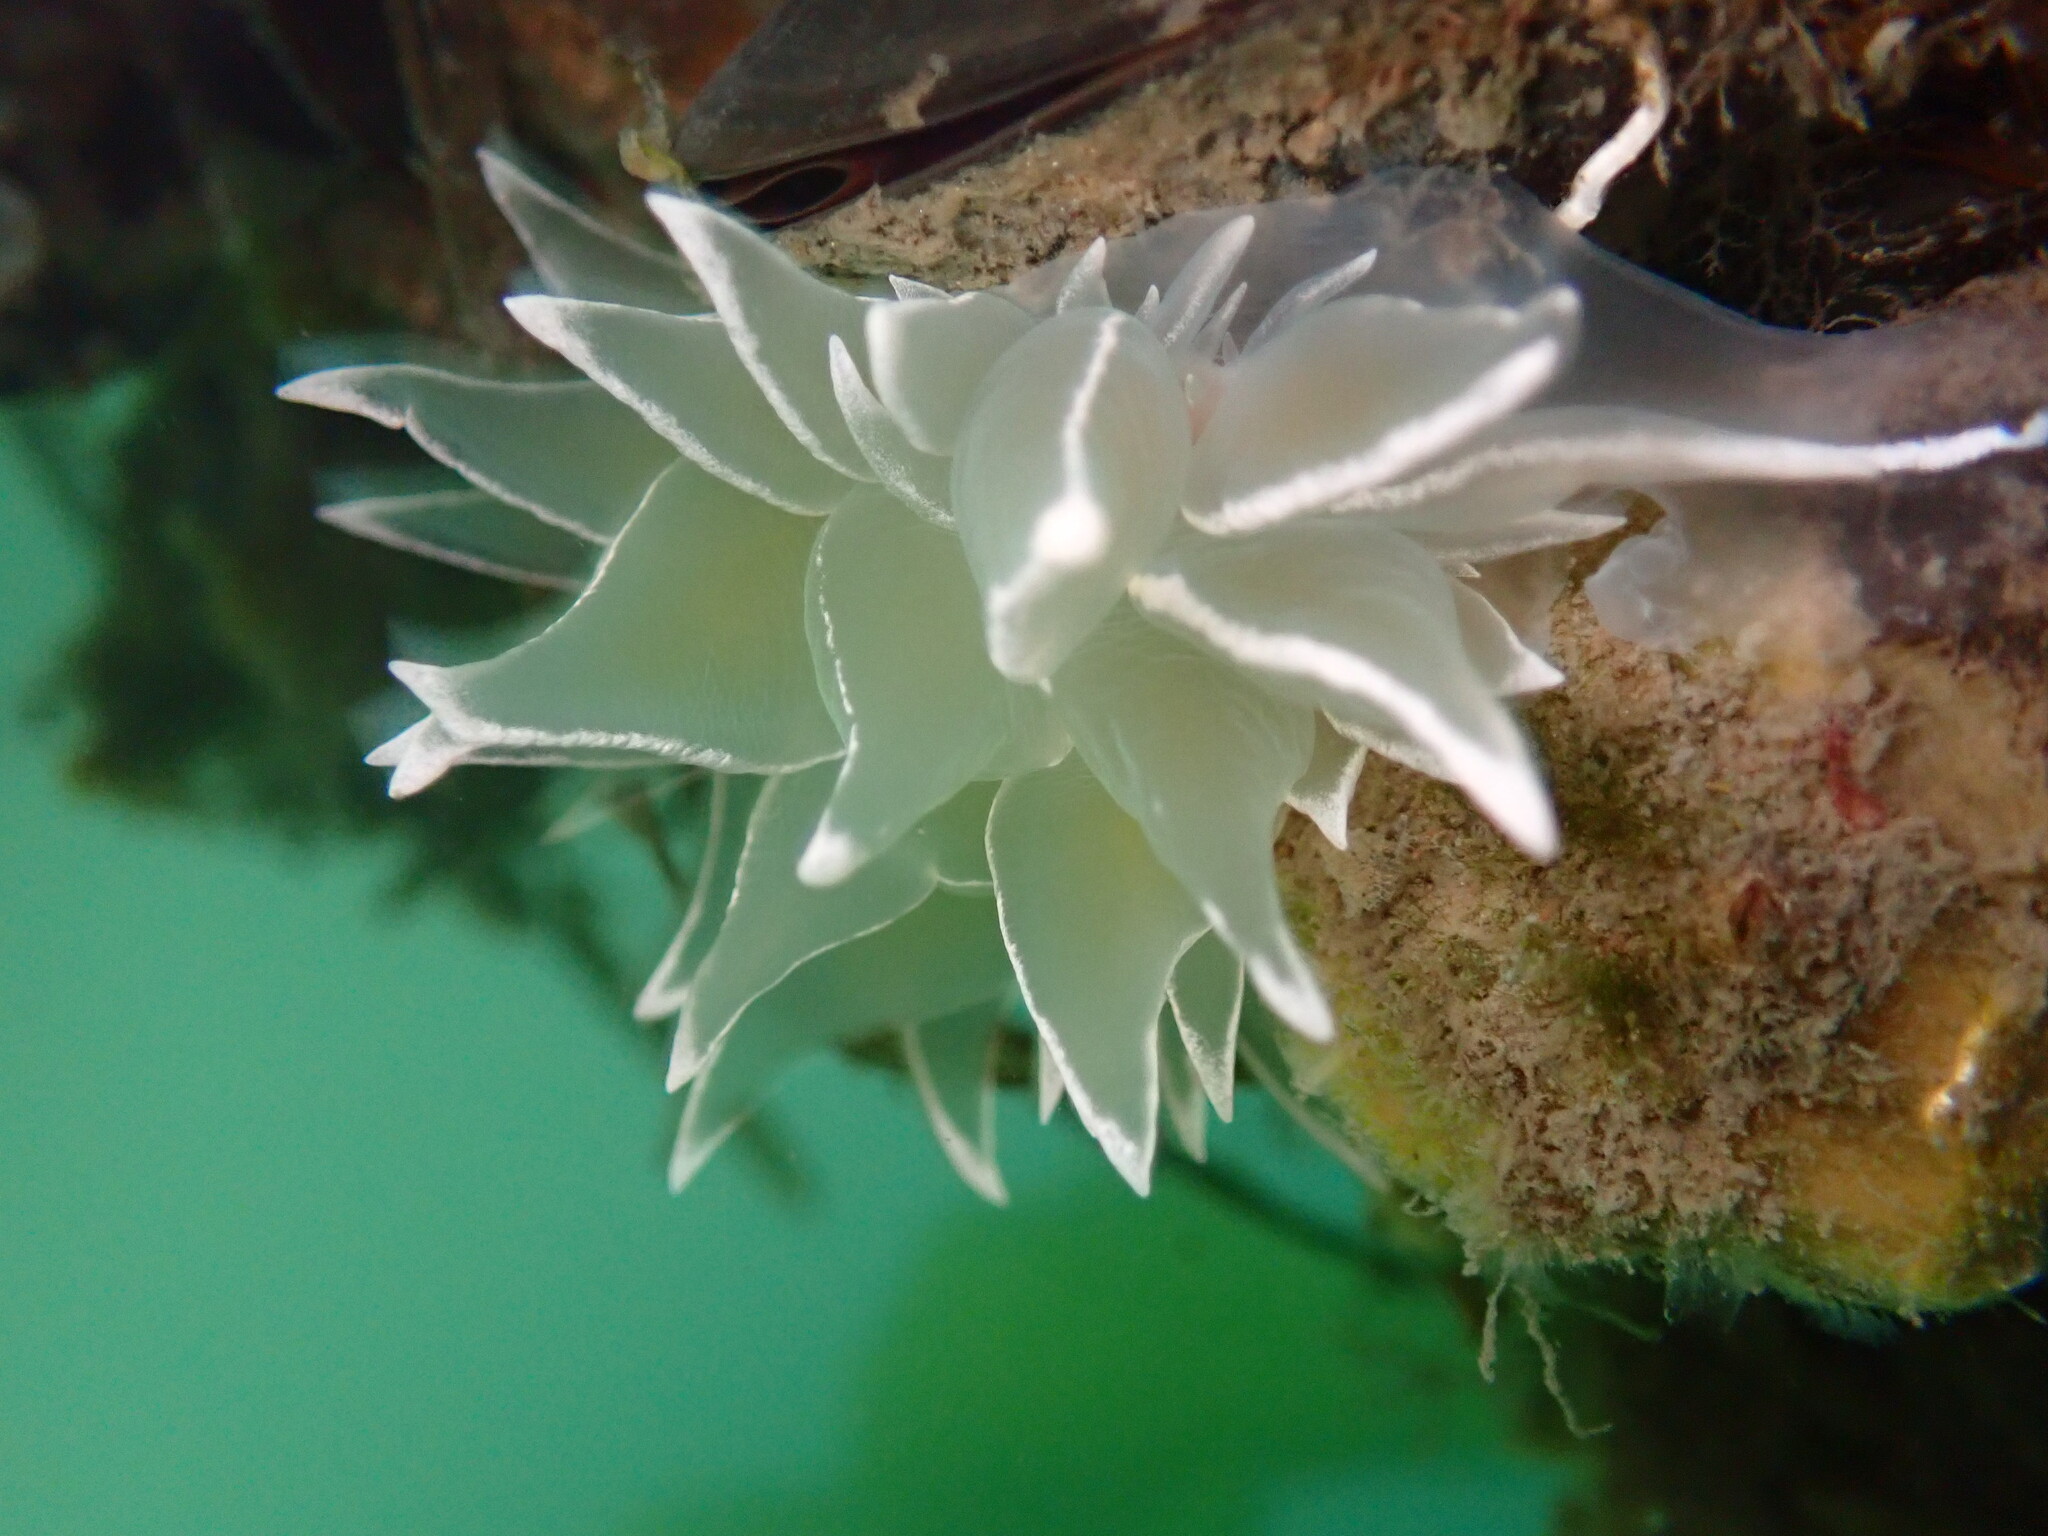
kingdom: Animalia
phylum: Mollusca
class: Gastropoda
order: Nudibranchia
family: Dironidae
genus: Dirona
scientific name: Dirona albolineata
